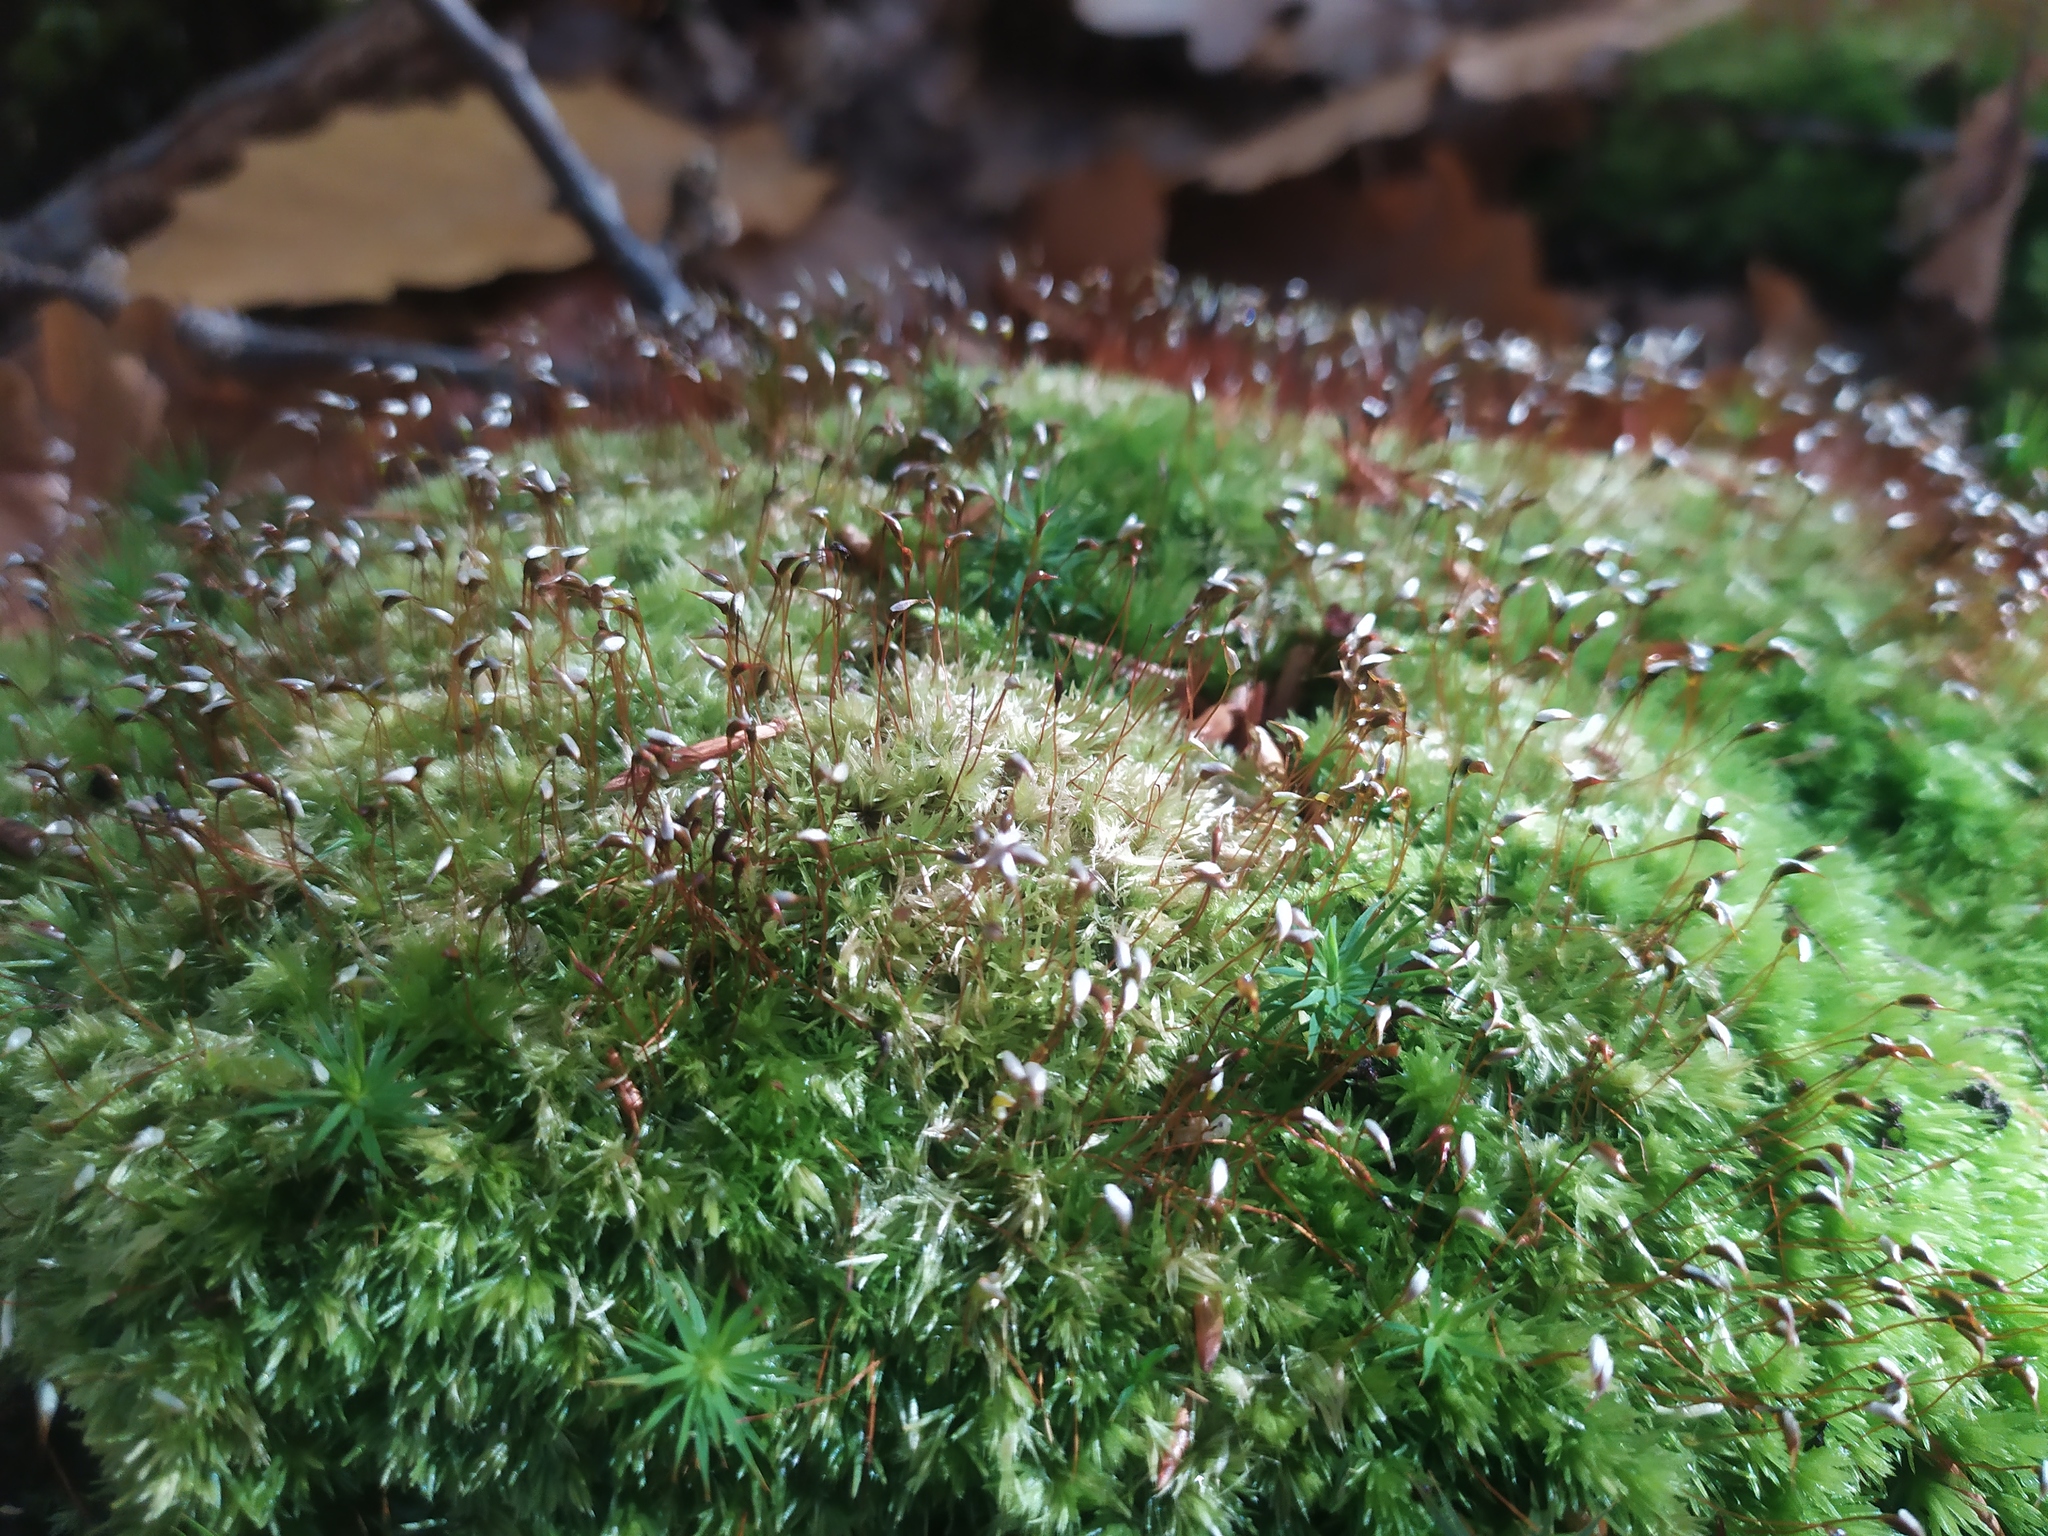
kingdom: Plantae
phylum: Bryophyta
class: Bryopsida
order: Dicranales
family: Leucobryaceae
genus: Leucobryum
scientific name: Leucobryum glaucum
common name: Large white-moss
